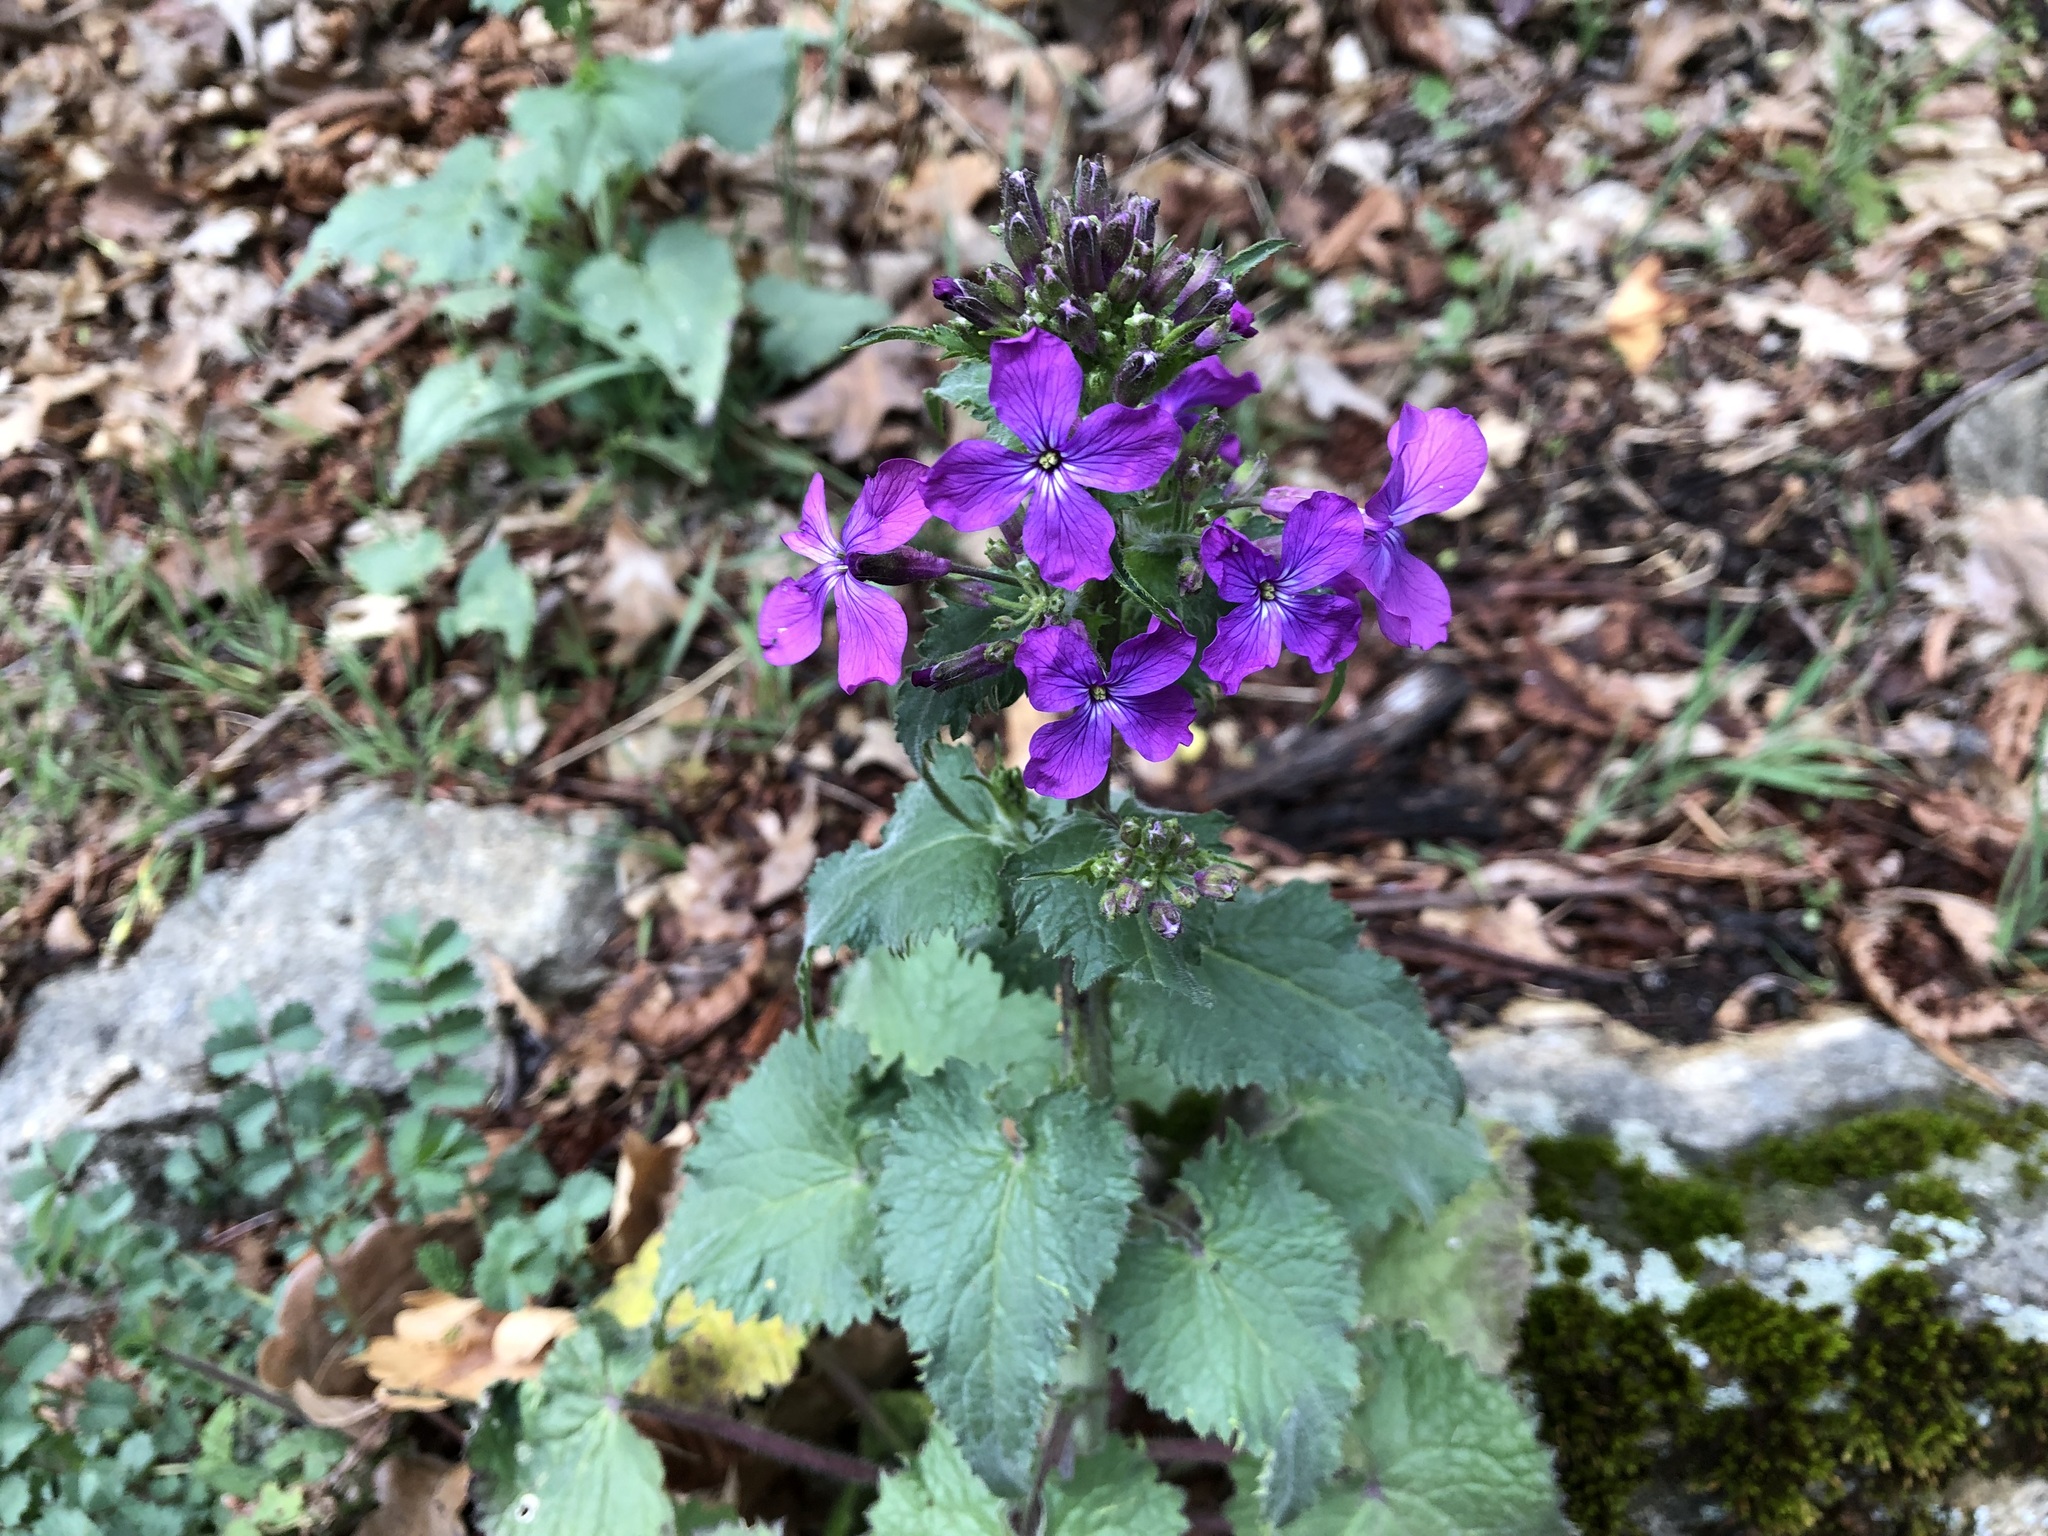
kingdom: Plantae
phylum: Tracheophyta
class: Magnoliopsida
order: Brassicales
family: Brassicaceae
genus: Lunaria
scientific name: Lunaria annua
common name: Honesty
